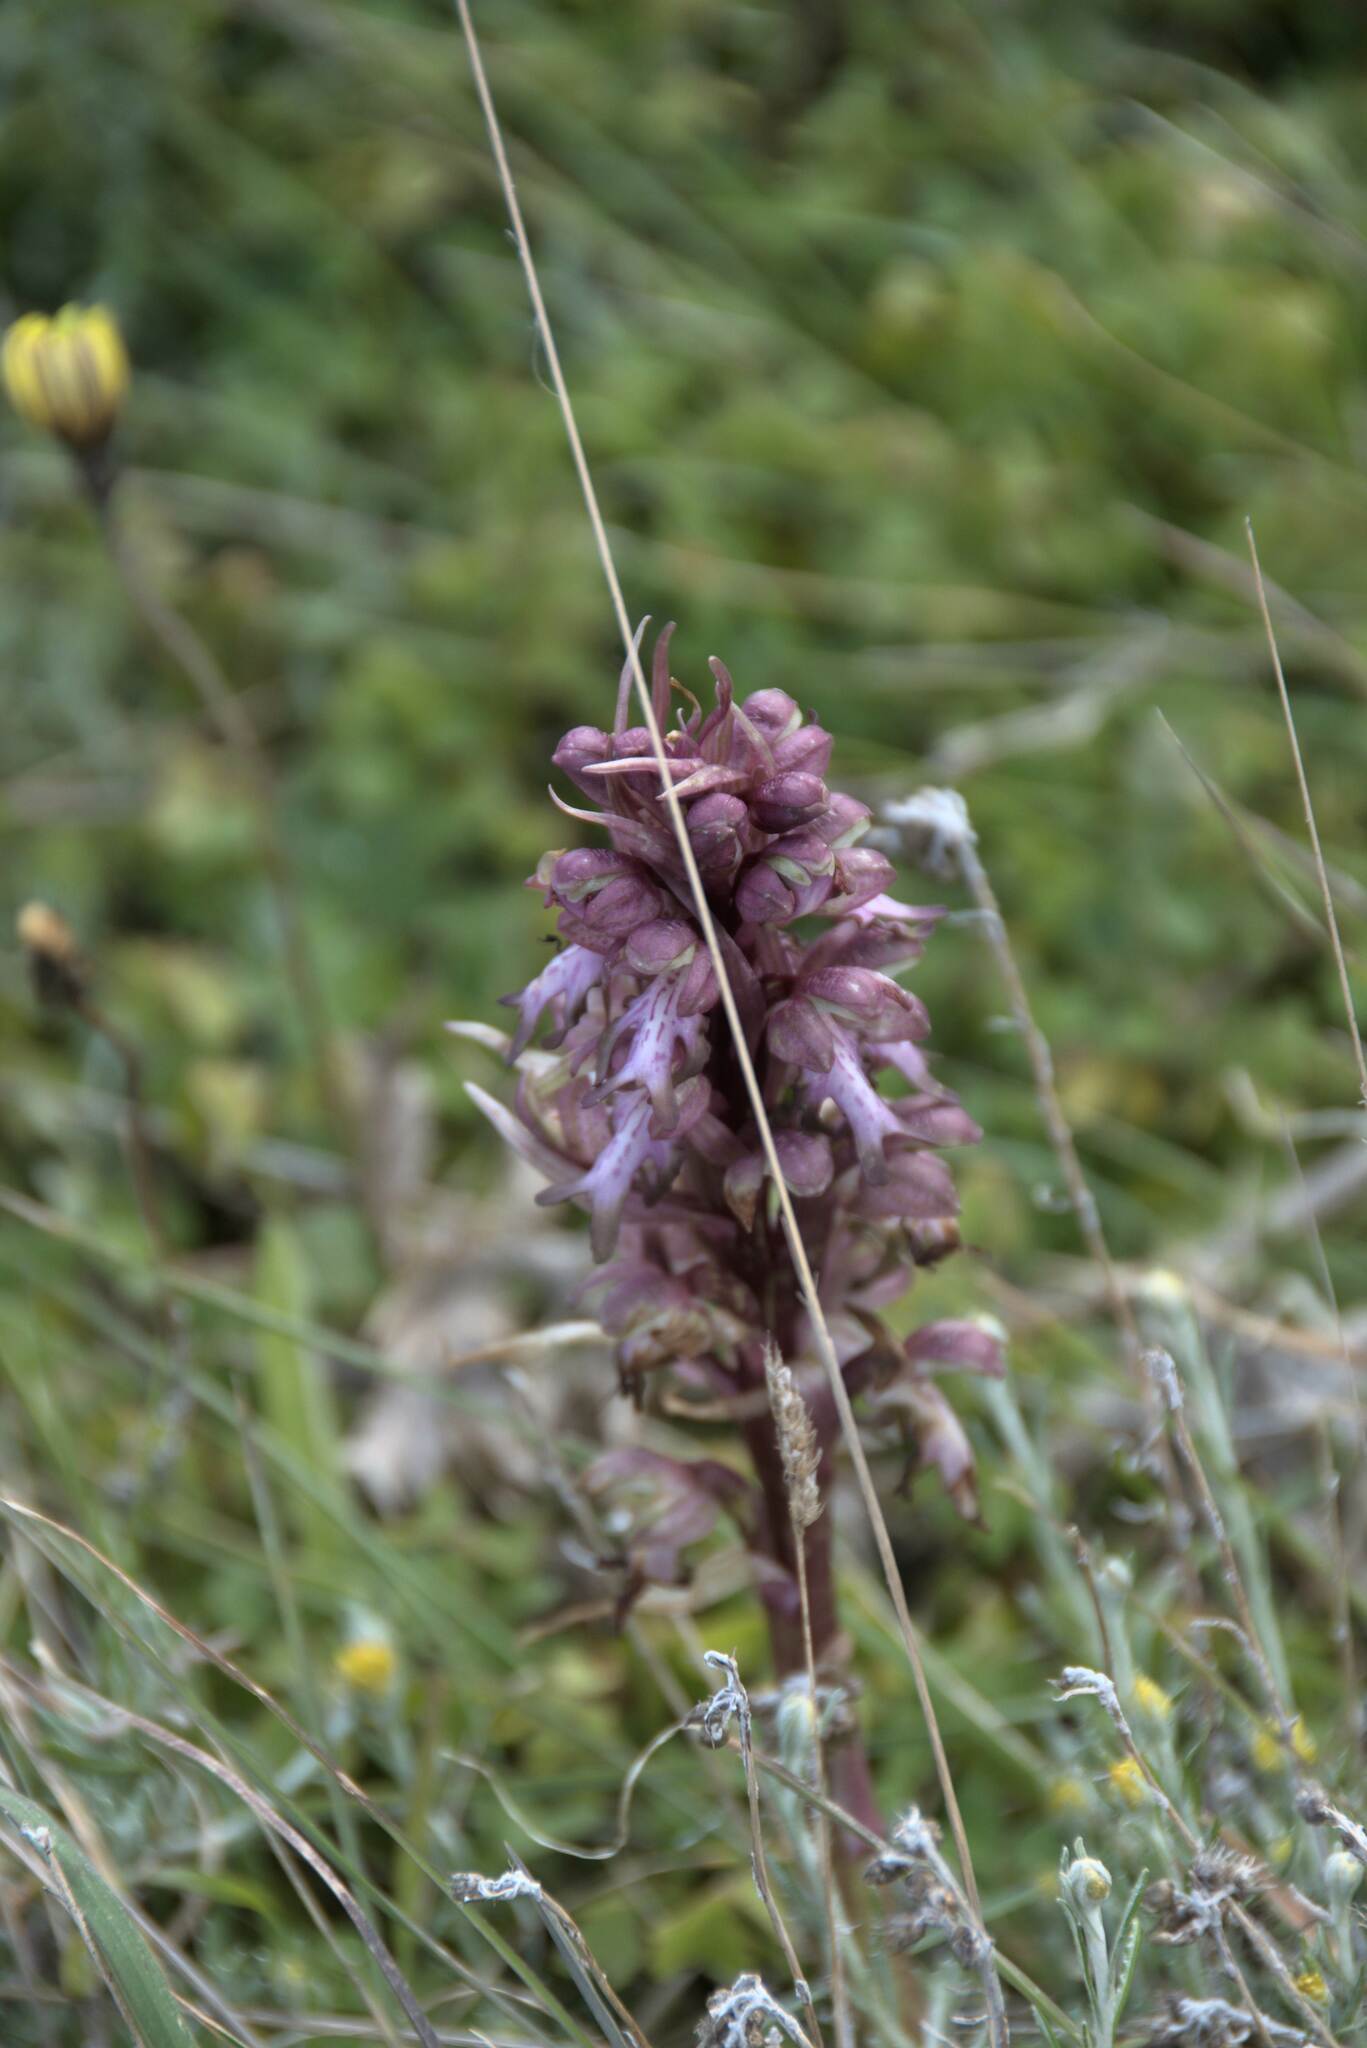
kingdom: Plantae
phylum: Tracheophyta
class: Liliopsida
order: Asparagales
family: Orchidaceae
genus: Himantoglossum
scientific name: Himantoglossum robertianum
